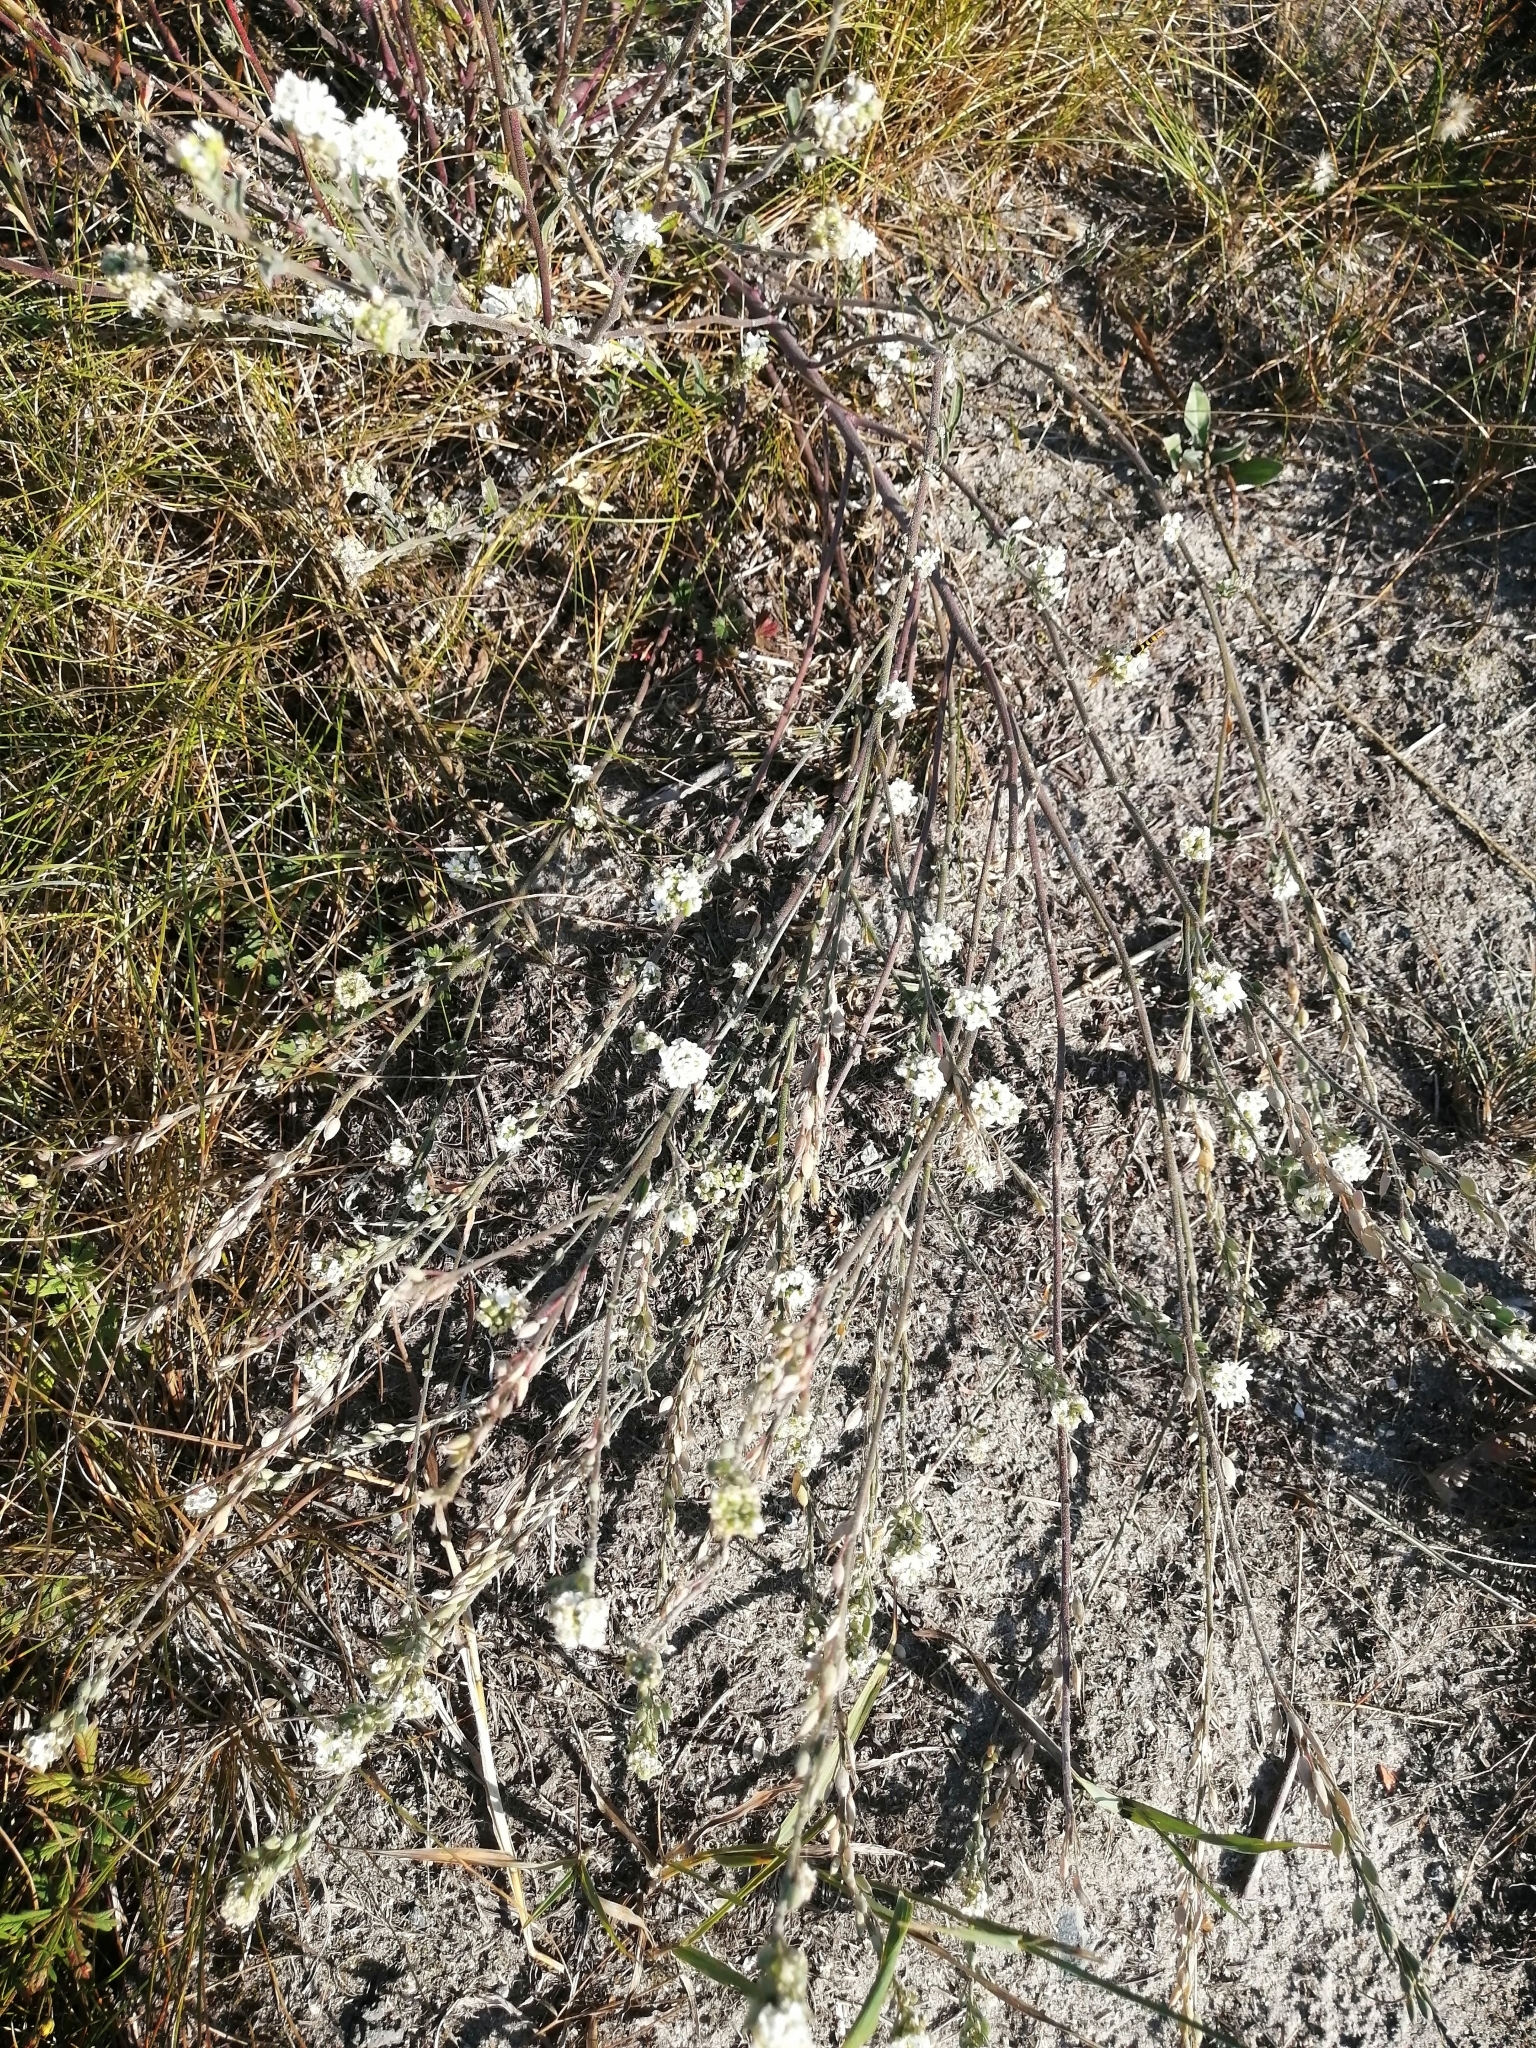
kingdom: Plantae
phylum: Tracheophyta
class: Magnoliopsida
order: Brassicales
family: Brassicaceae
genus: Berteroa
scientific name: Berteroa incana
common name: Hoary alison
